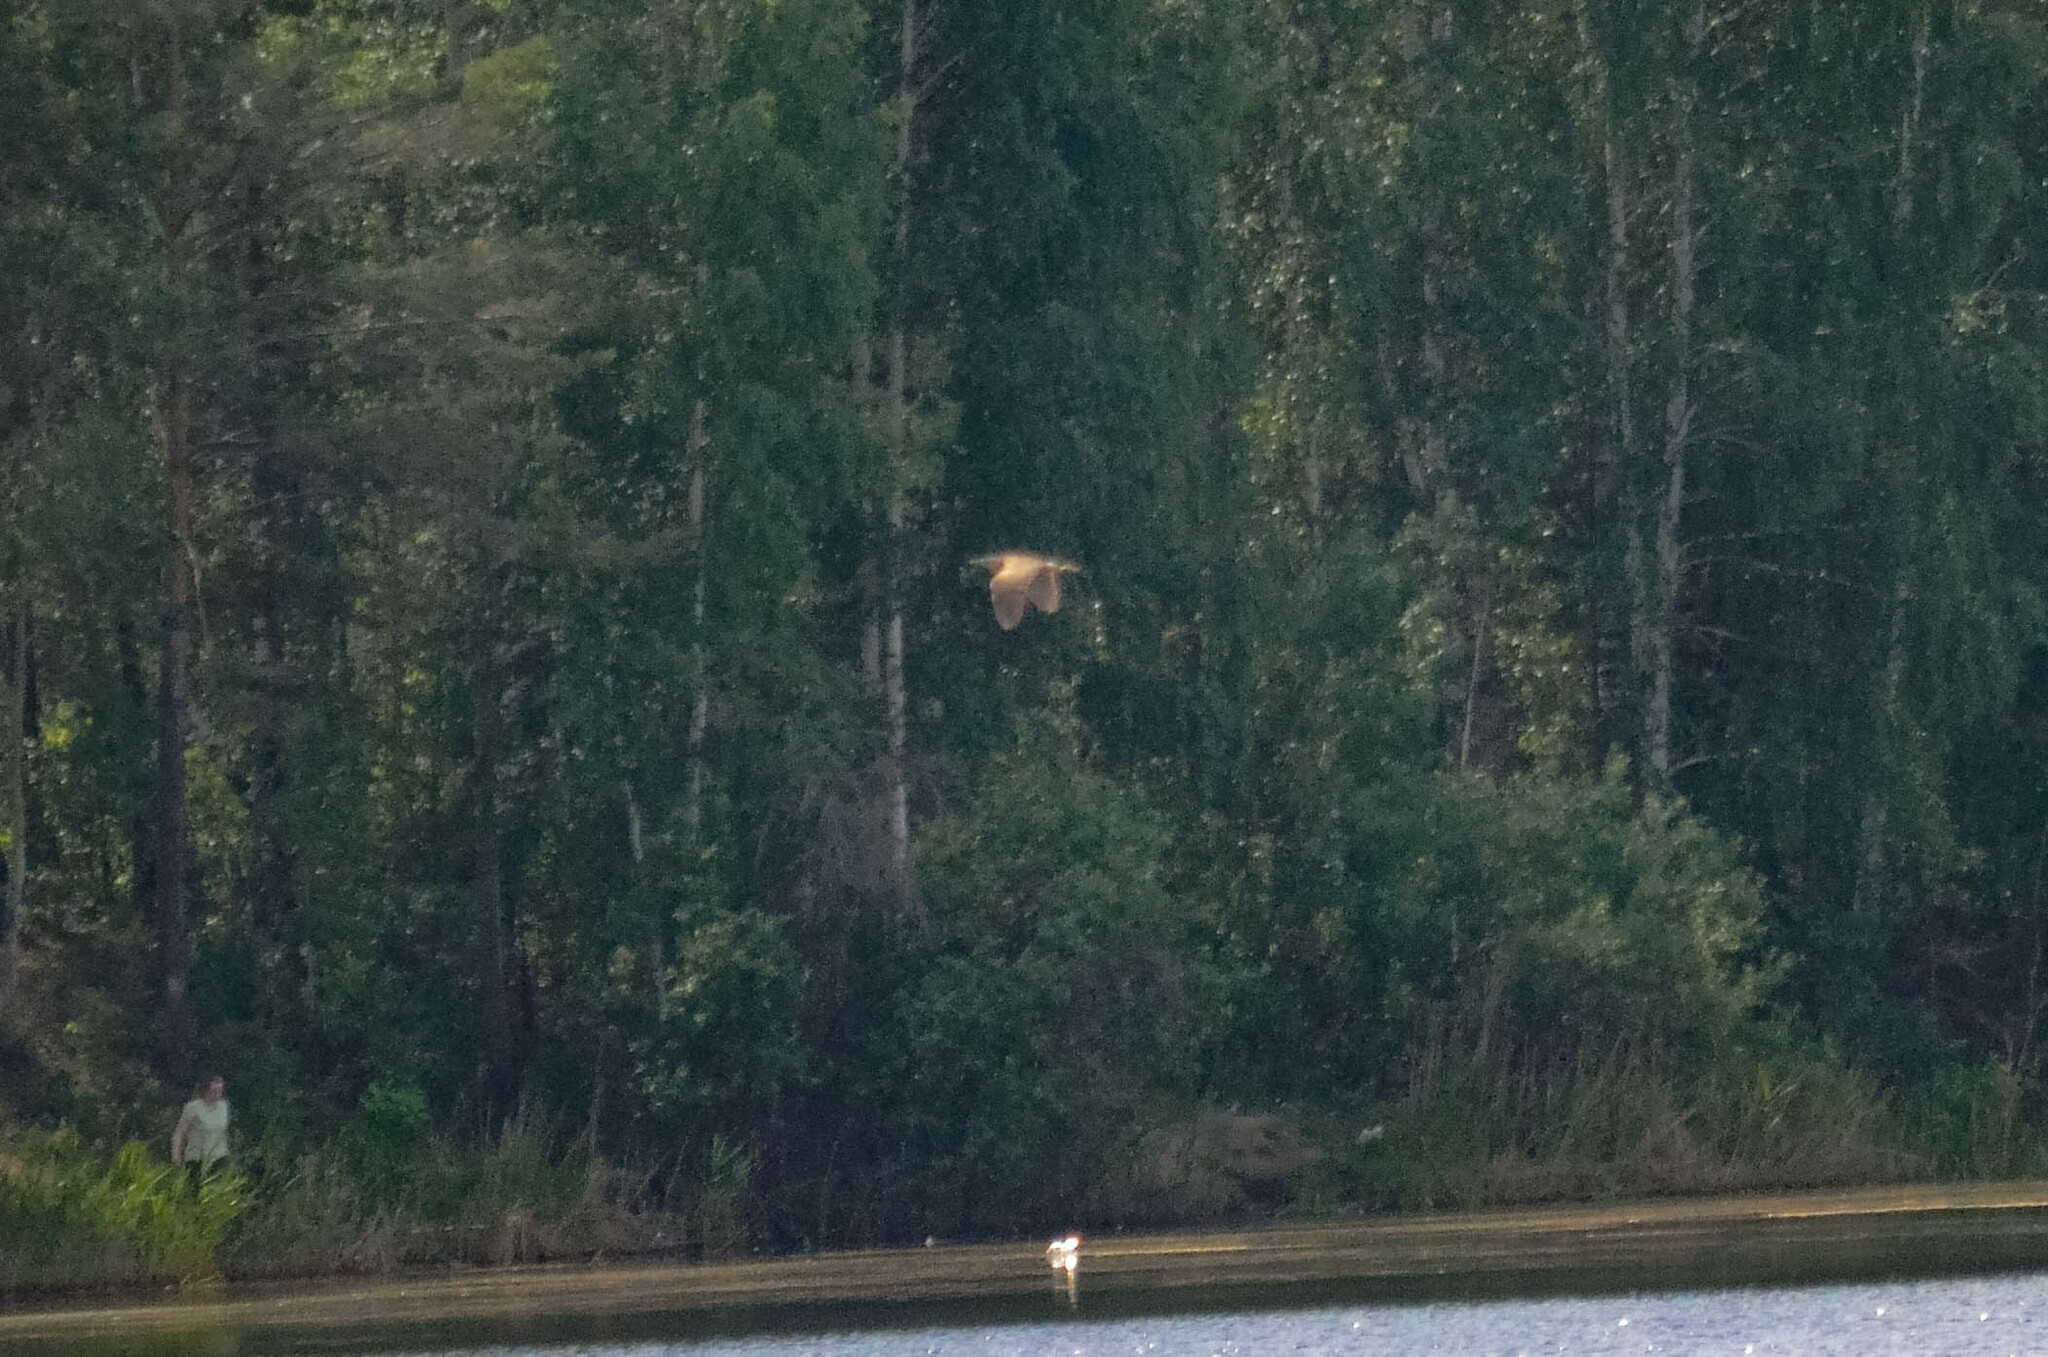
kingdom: Animalia
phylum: Chordata
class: Aves
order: Pelecaniformes
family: Ardeidae
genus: Botaurus
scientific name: Botaurus stellaris
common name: Eurasian bittern
